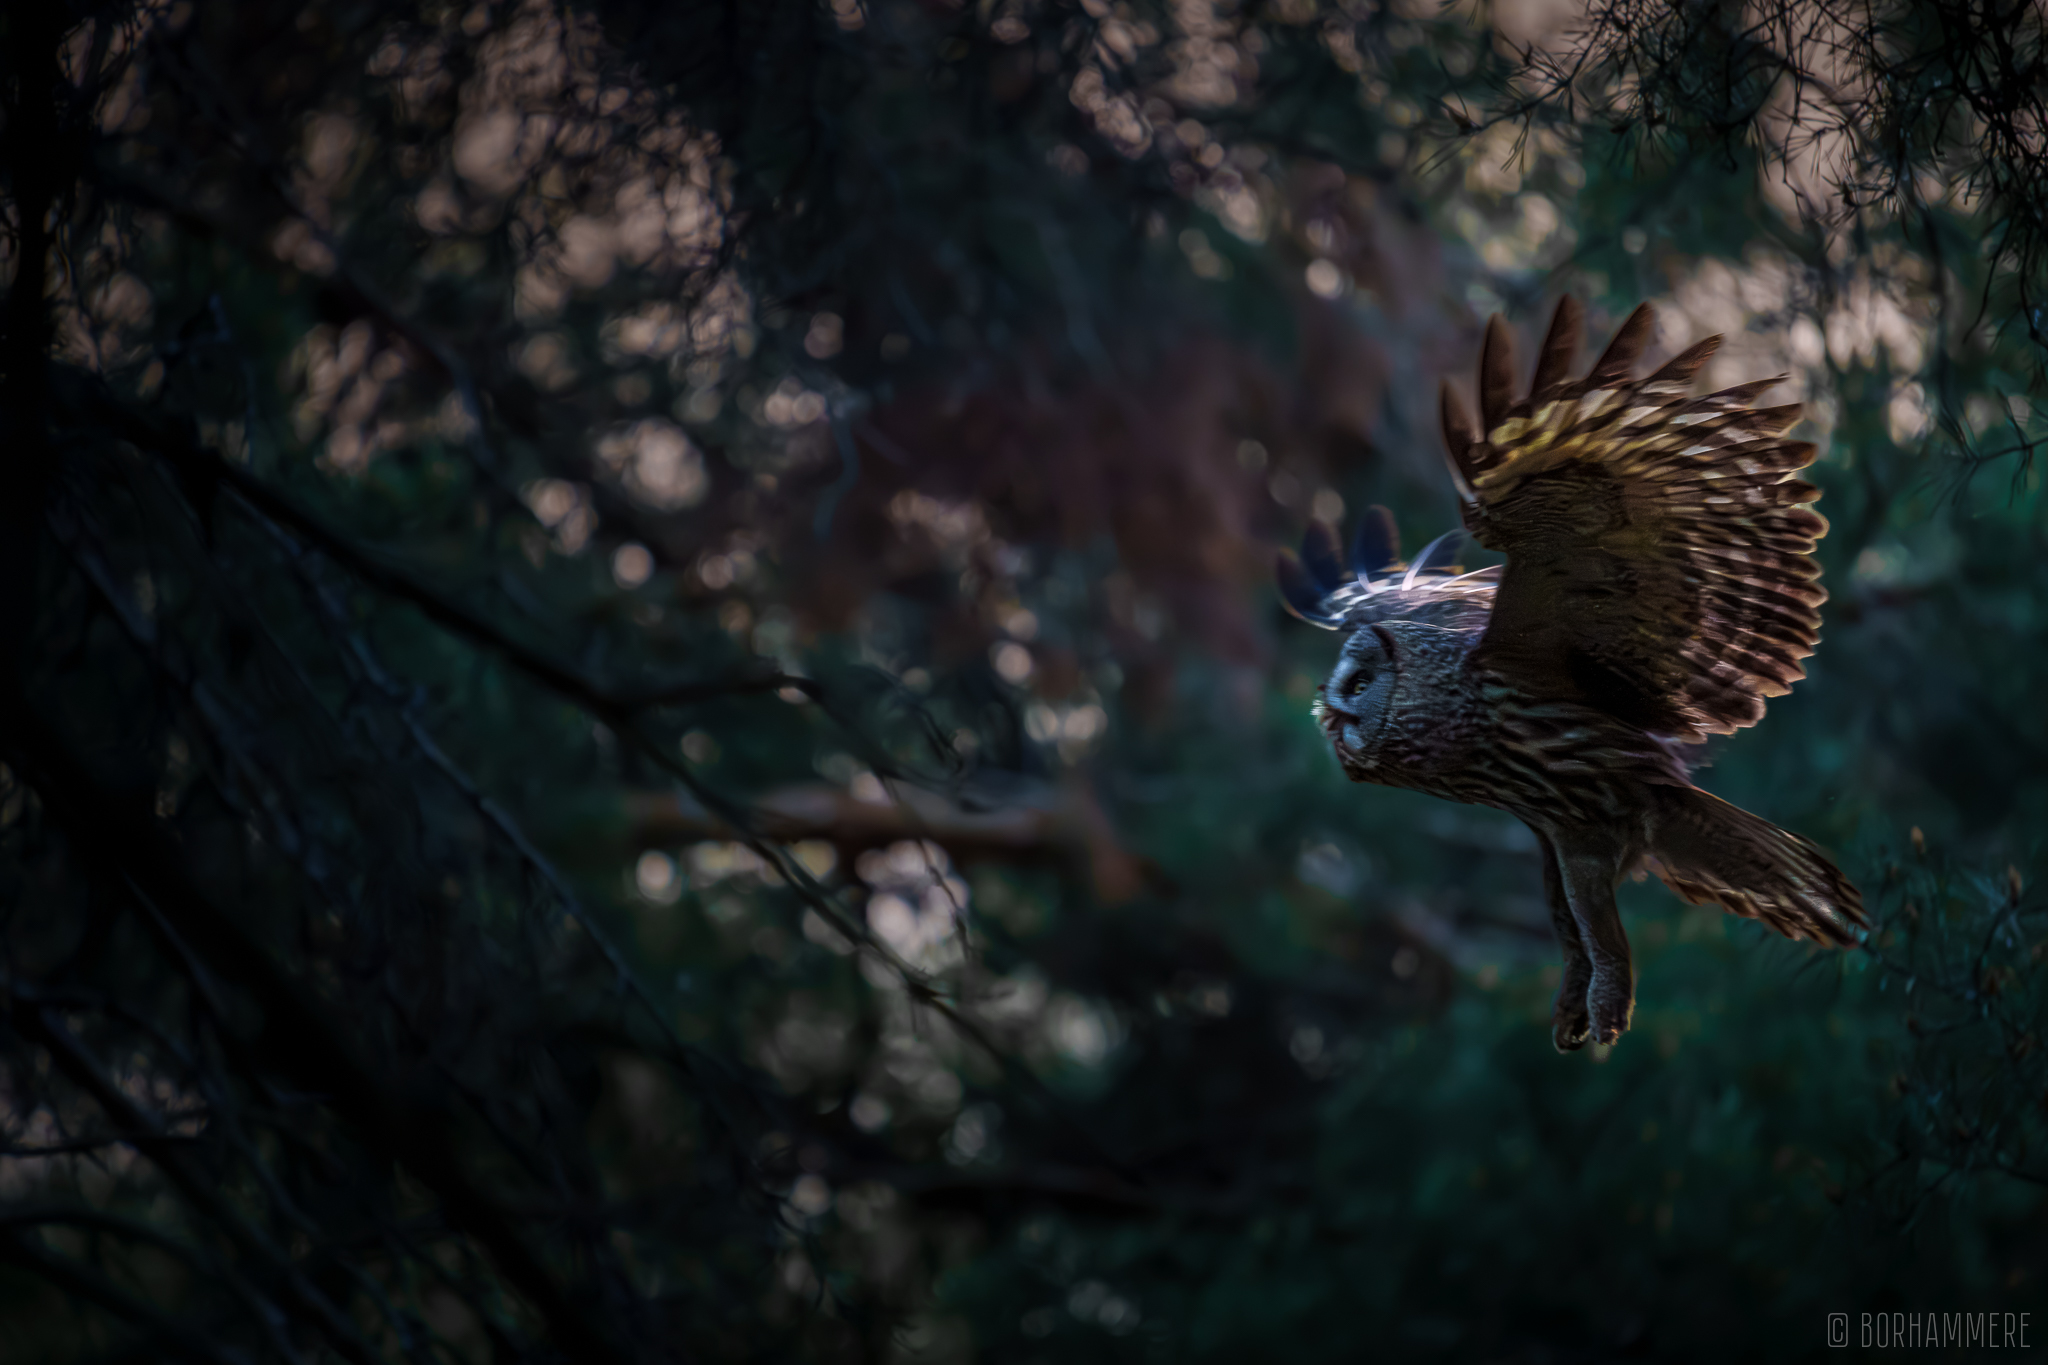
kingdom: Animalia
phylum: Chordata
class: Aves
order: Strigiformes
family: Strigidae
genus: Strix
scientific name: Strix nebulosa
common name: Great grey owl
